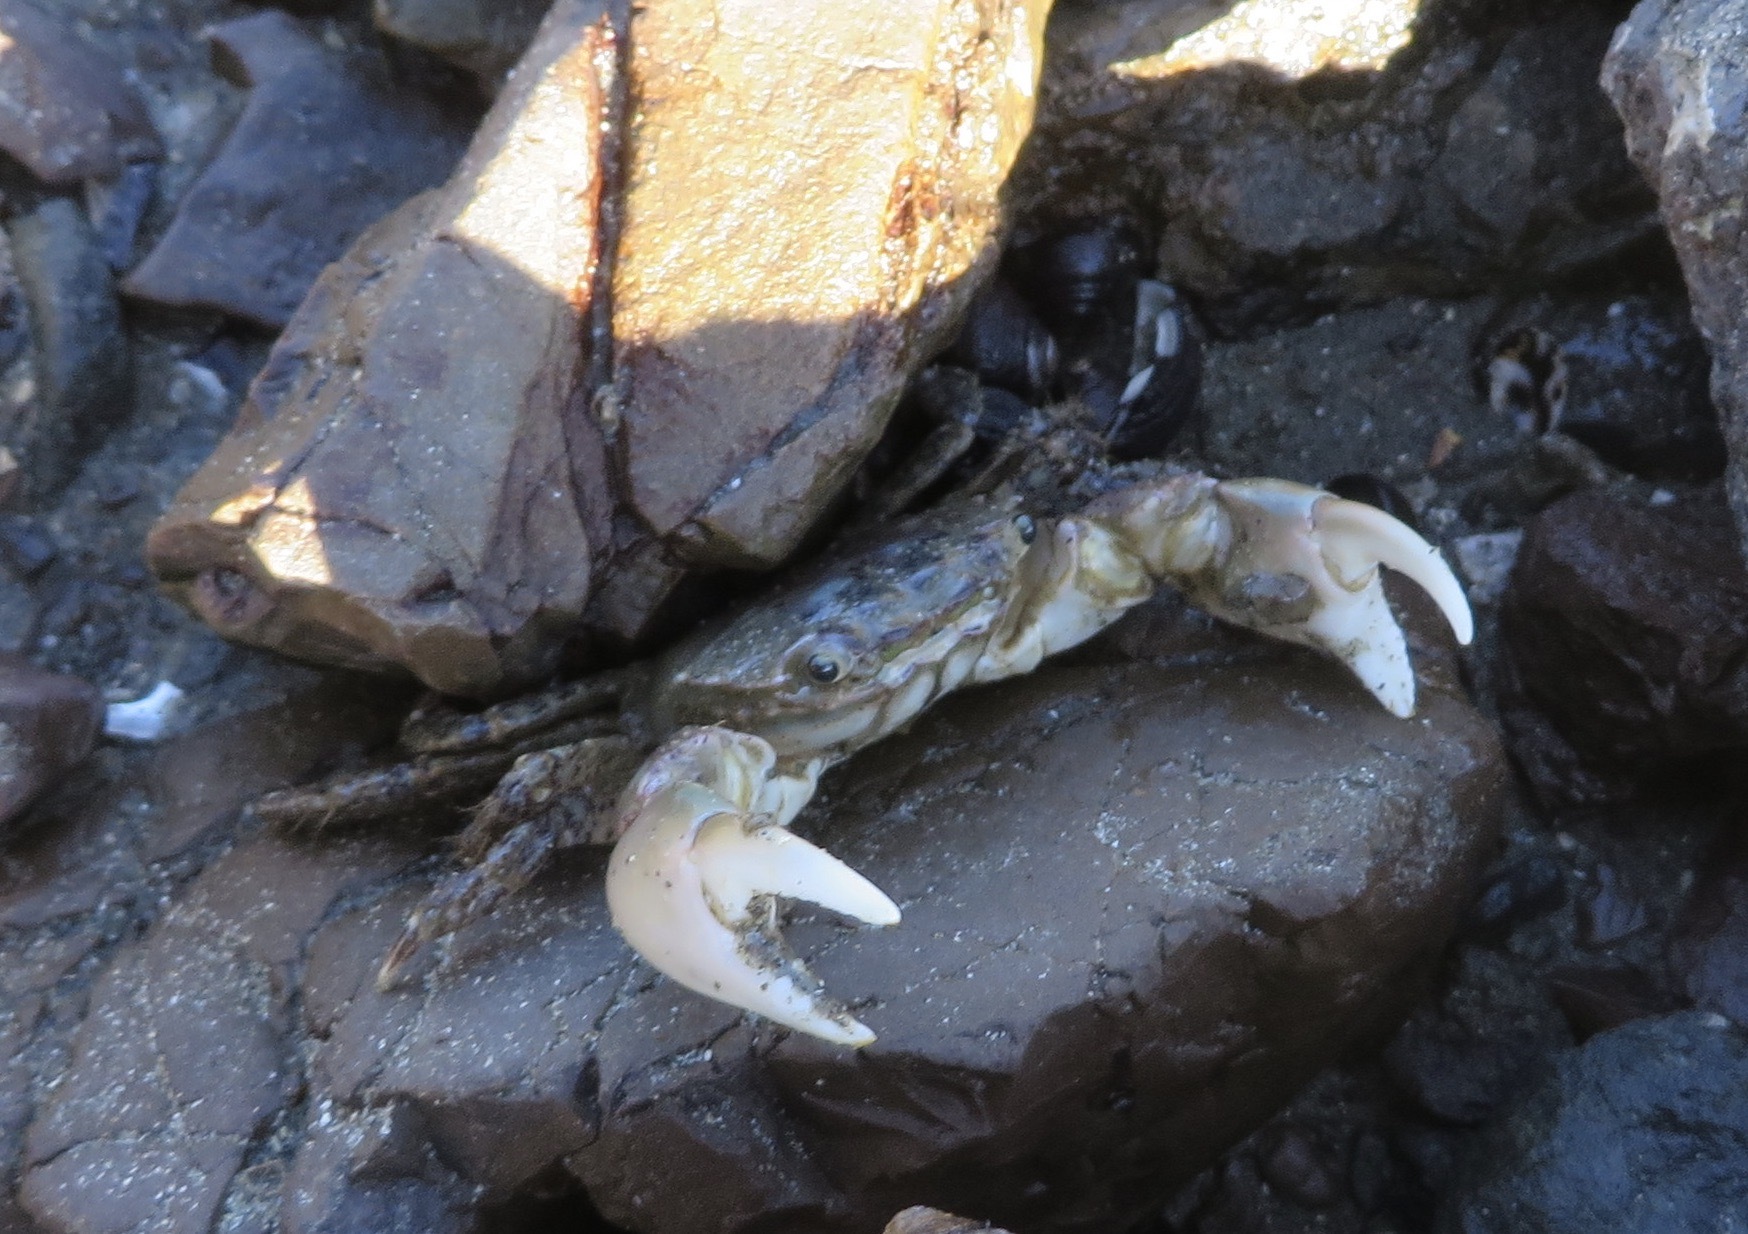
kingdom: Animalia
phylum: Arthropoda
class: Malacostraca
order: Decapoda
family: Varunidae
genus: Hemigrapsus
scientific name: Hemigrapsus oregonensis
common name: Yellow shore crab
